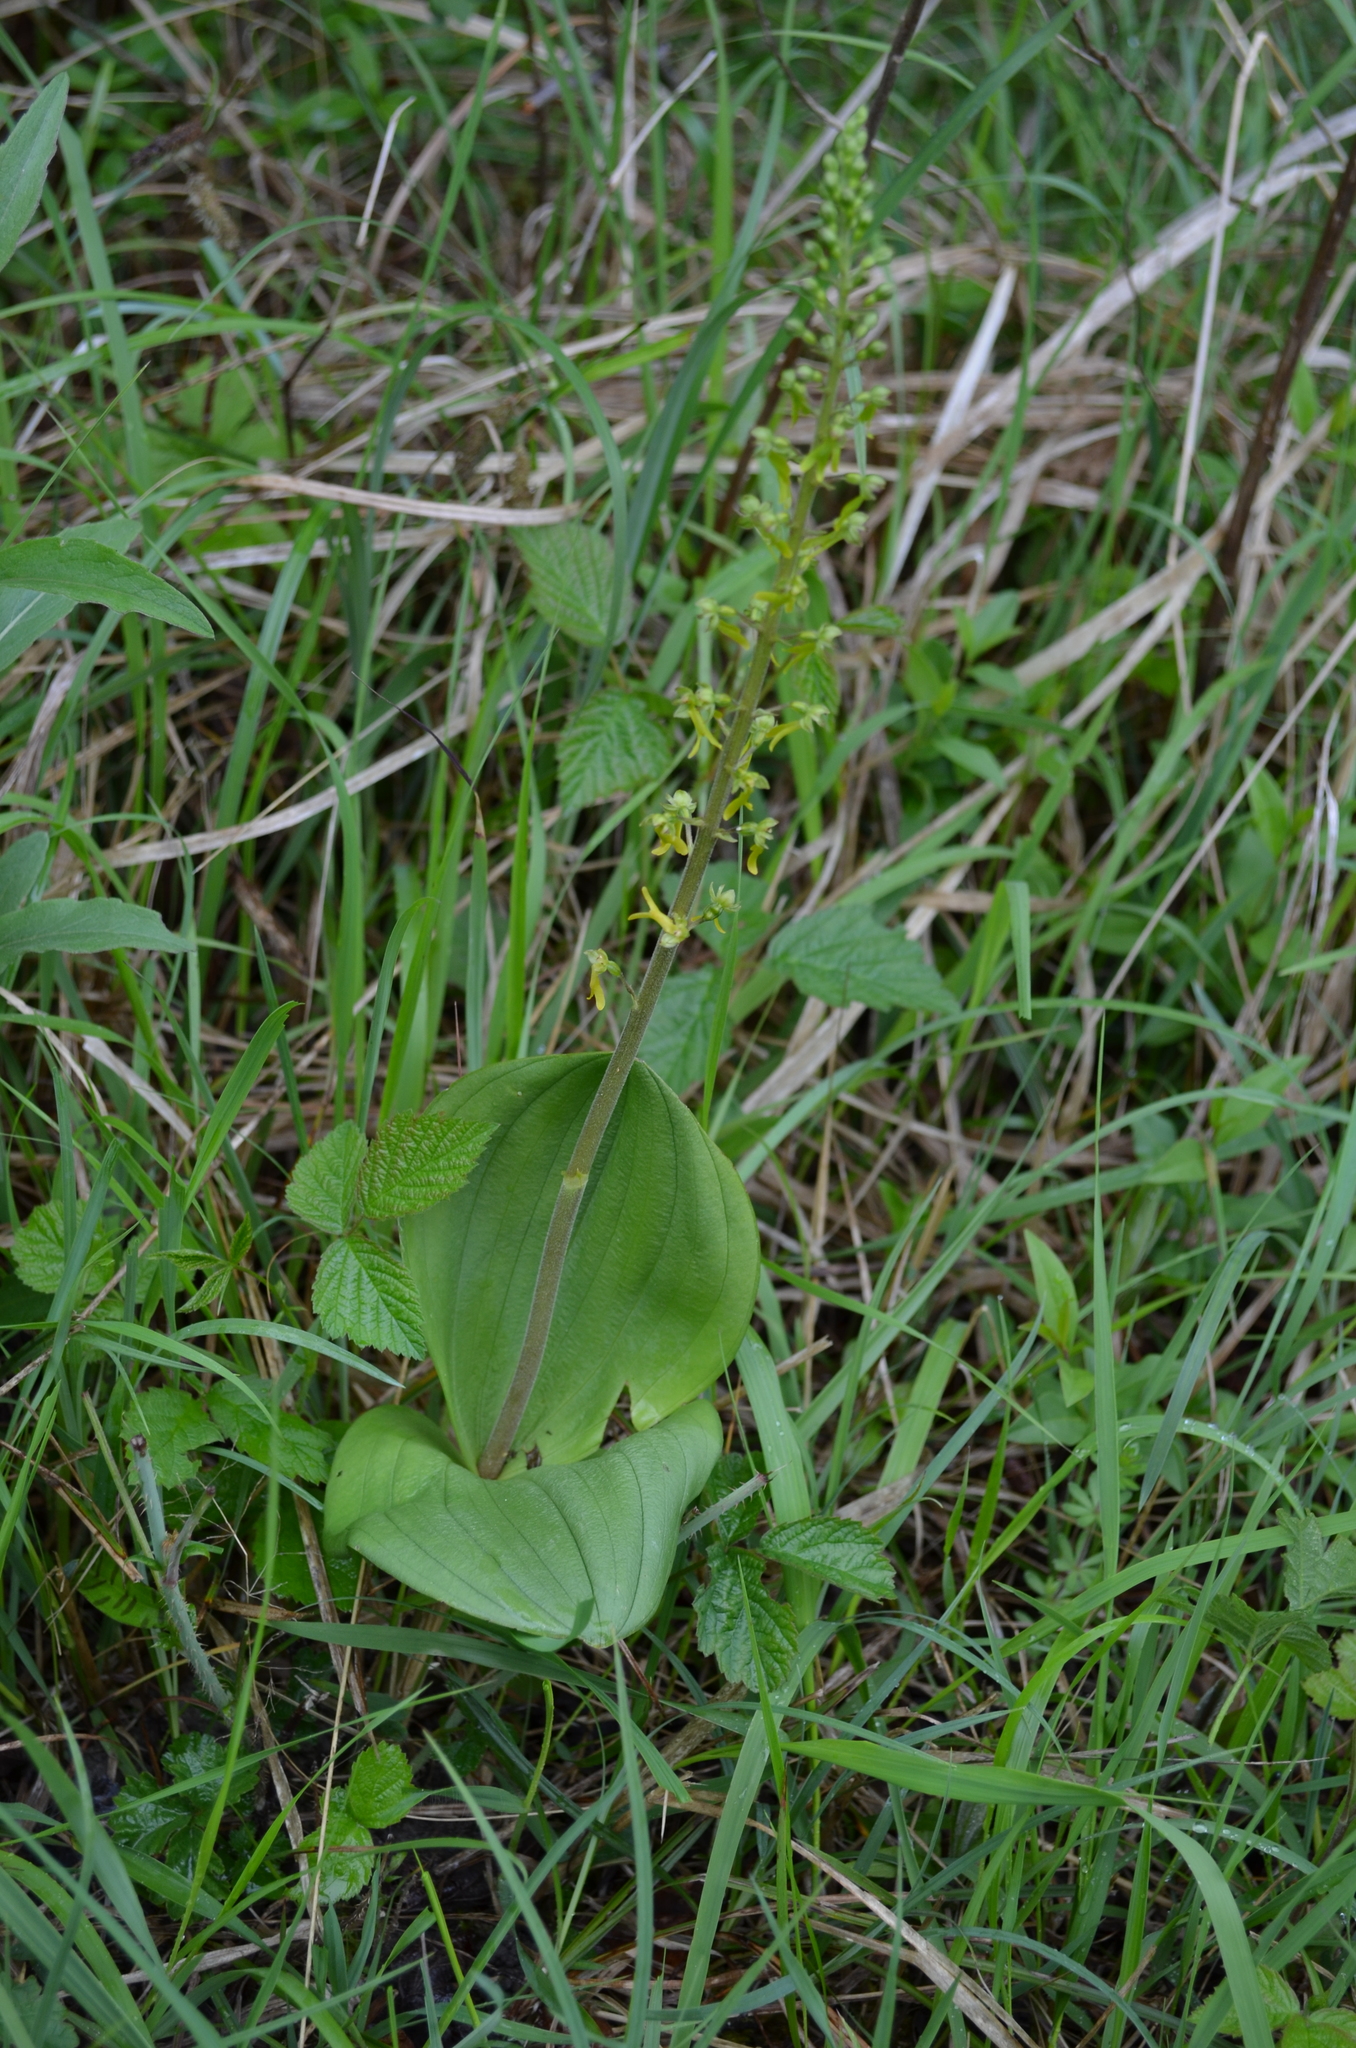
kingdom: Plantae
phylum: Tracheophyta
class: Liliopsida
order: Asparagales
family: Orchidaceae
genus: Neottia
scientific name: Neottia ovata
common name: Common twayblade
